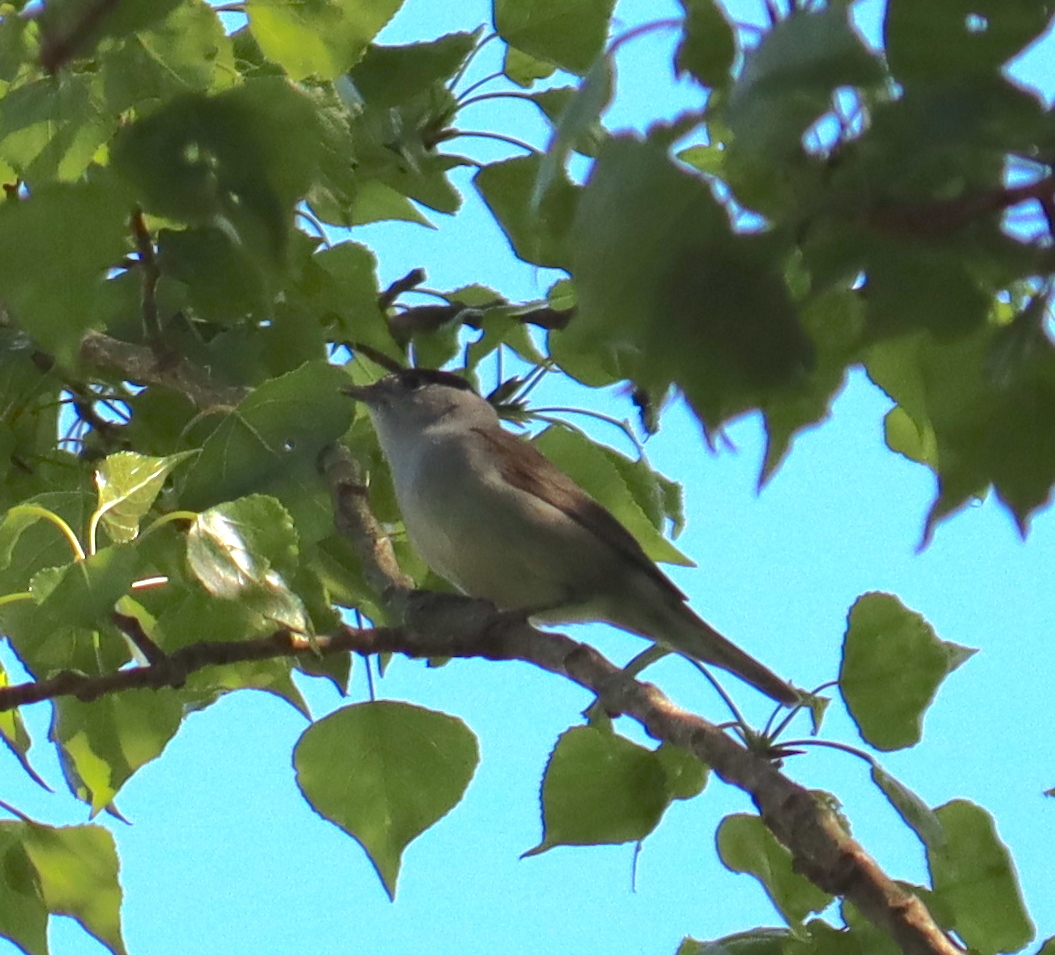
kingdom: Animalia
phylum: Chordata
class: Aves
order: Passeriformes
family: Sylviidae
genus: Sylvia
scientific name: Sylvia atricapilla
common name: Eurasian blackcap
